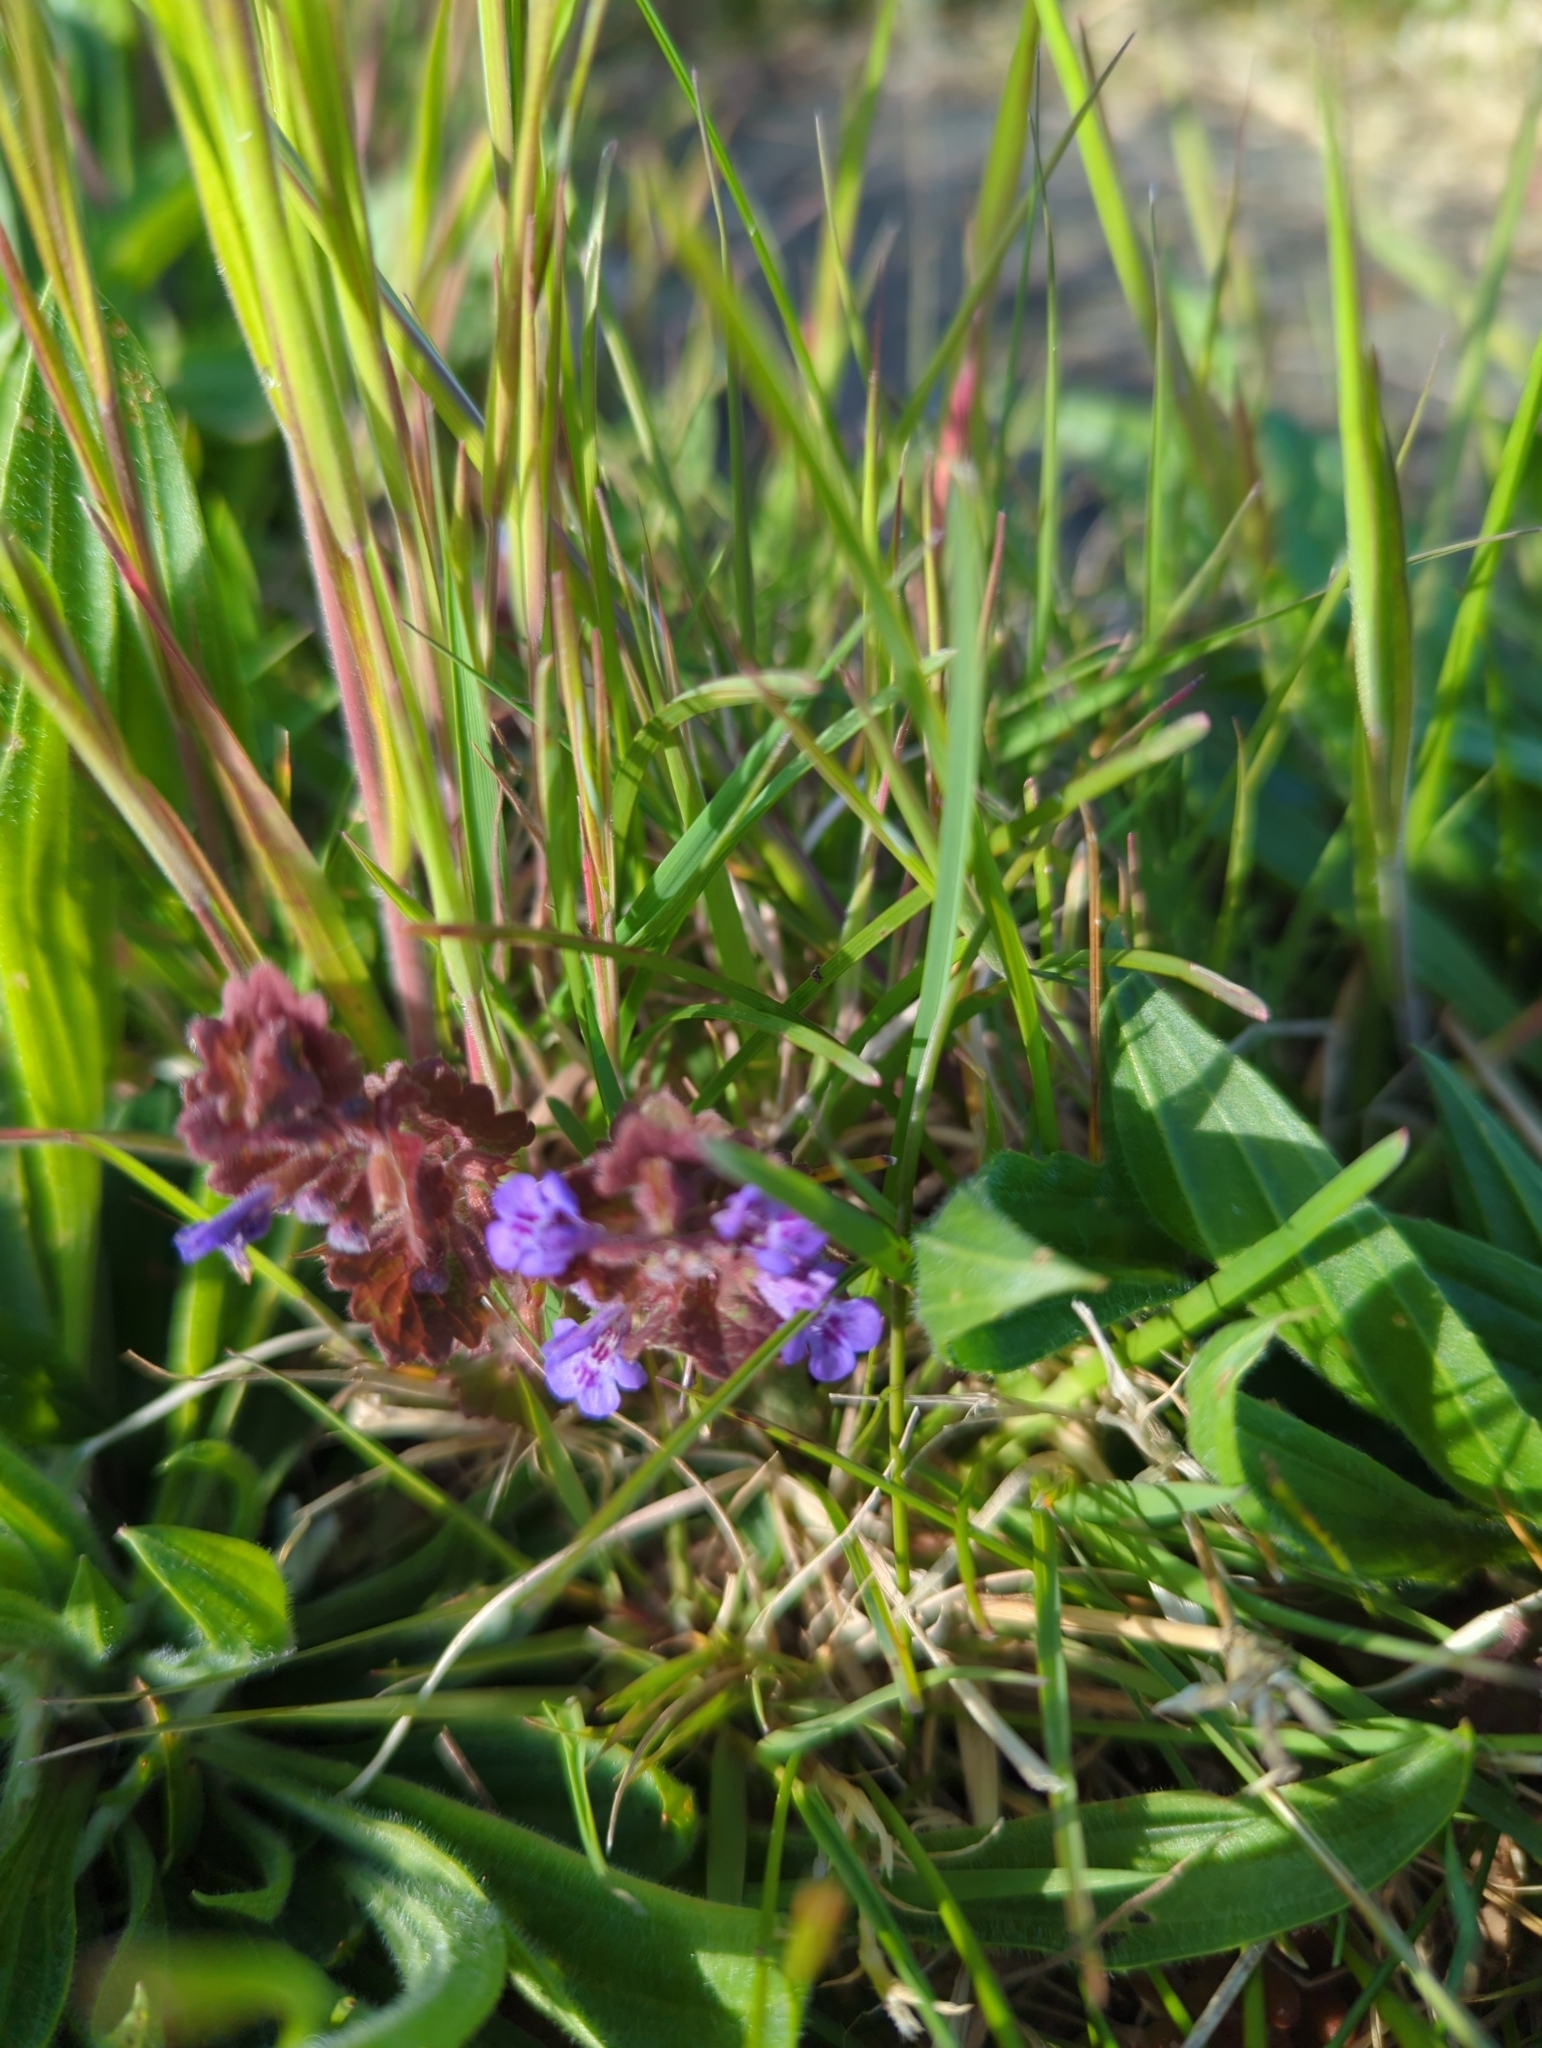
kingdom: Plantae
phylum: Tracheophyta
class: Magnoliopsida
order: Lamiales
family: Lamiaceae
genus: Glechoma
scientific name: Glechoma hederacea
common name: Ground ivy
